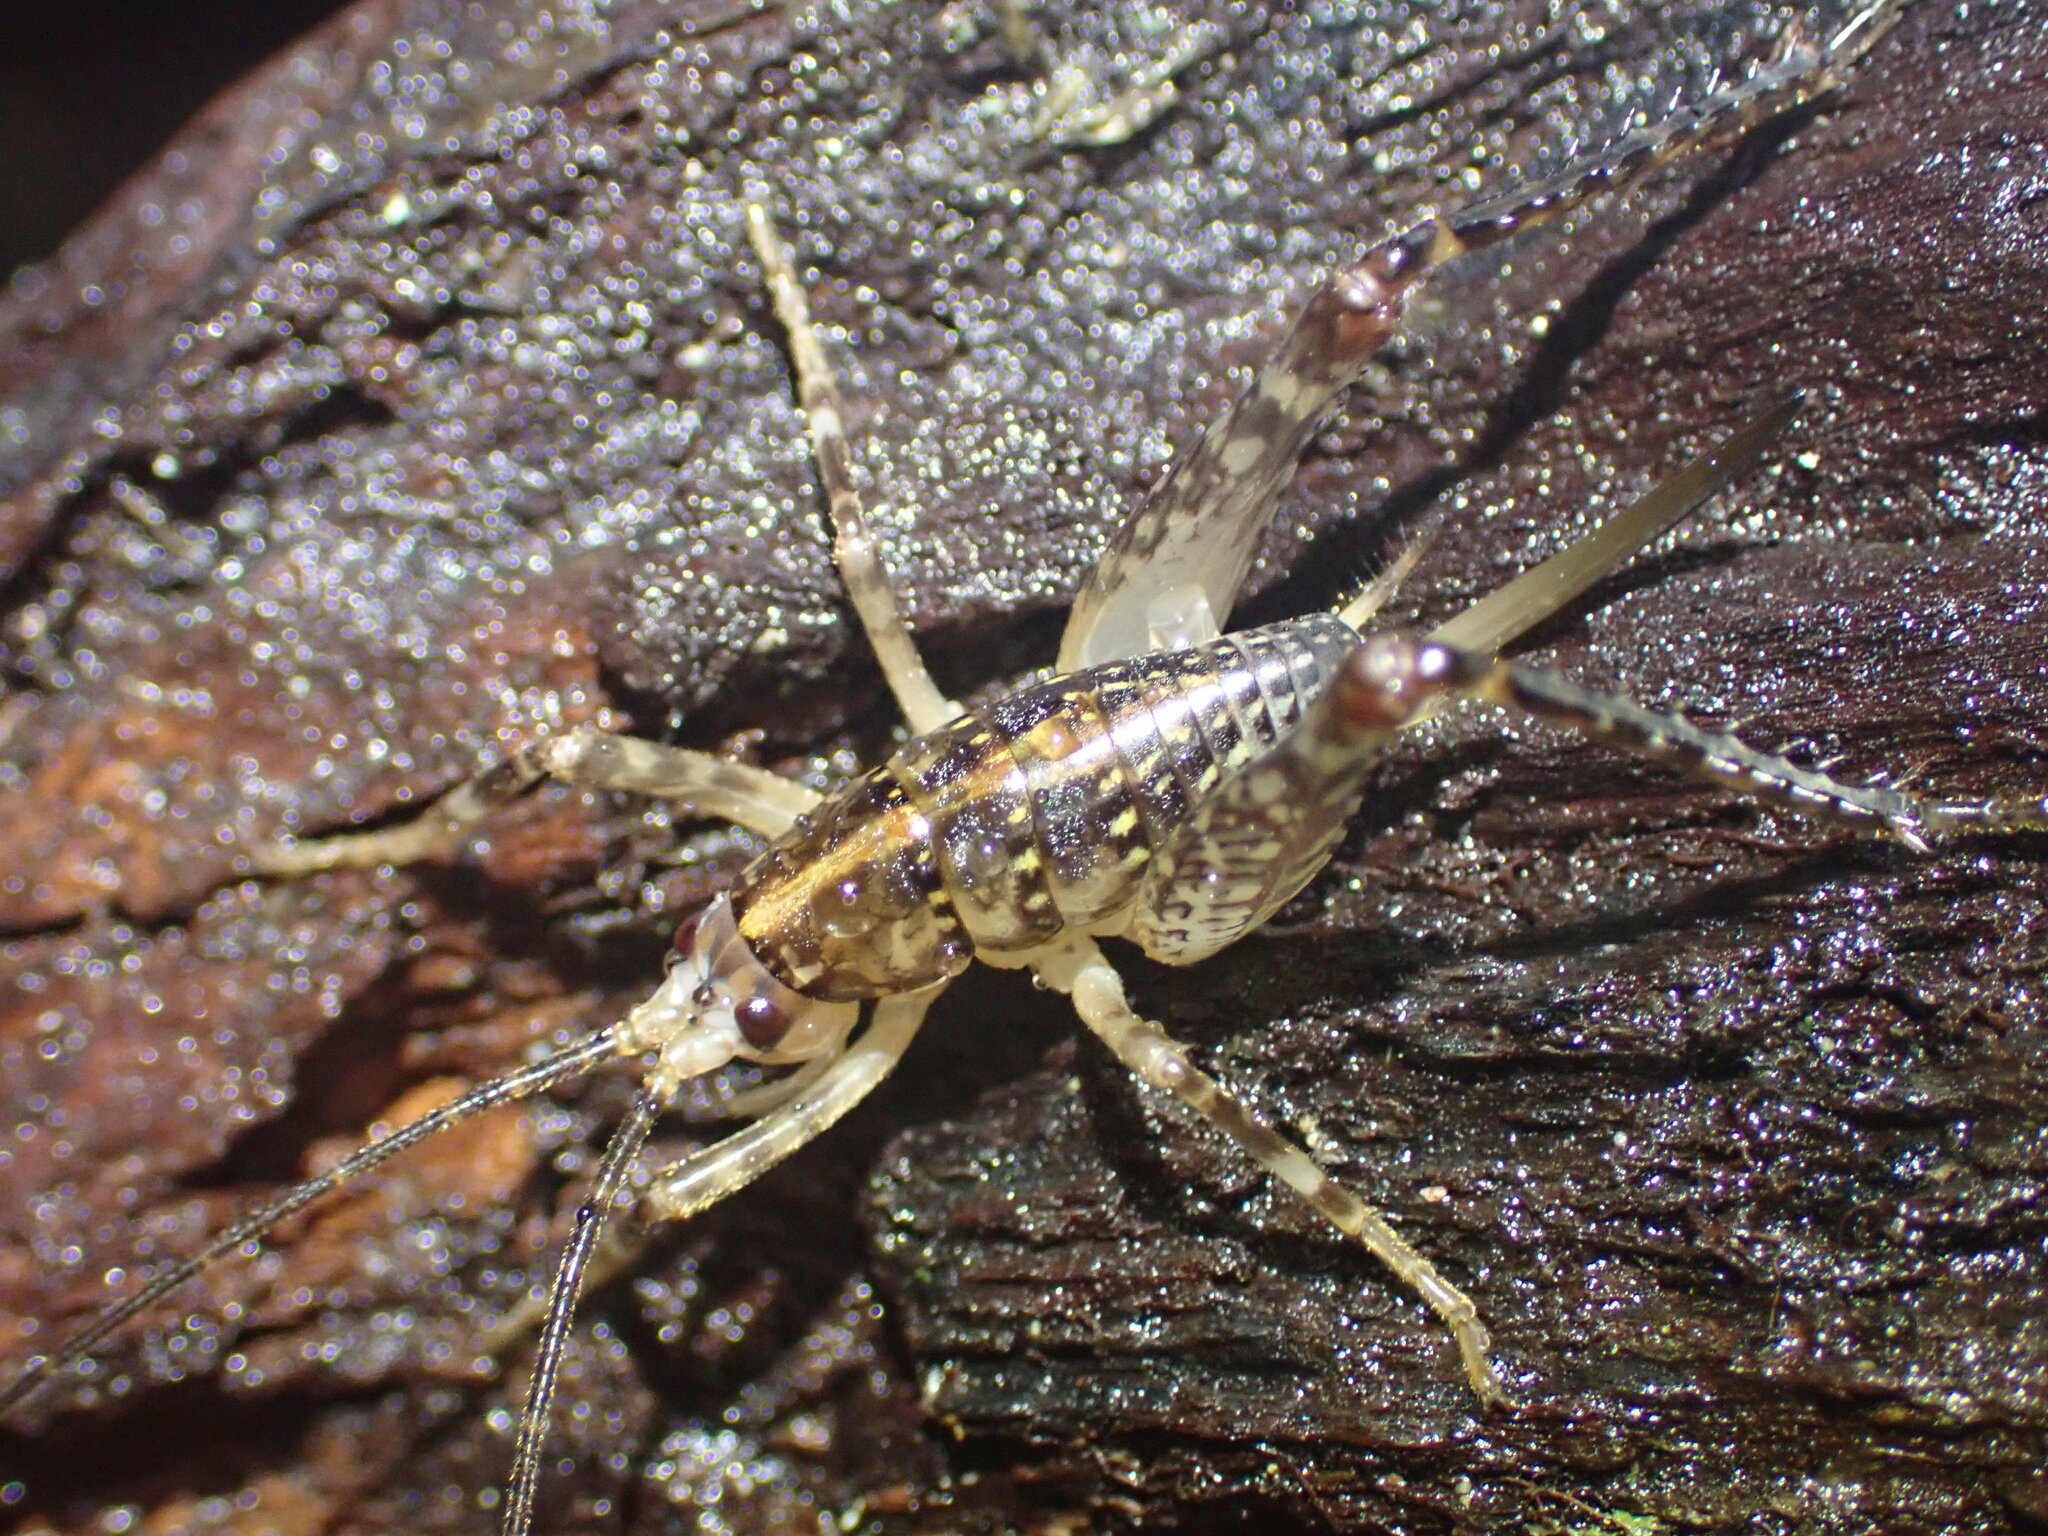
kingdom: Animalia
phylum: Arthropoda
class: Insecta
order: Orthoptera
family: Rhaphidophoridae
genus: Talitropsis
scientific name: Talitropsis sedilloti
